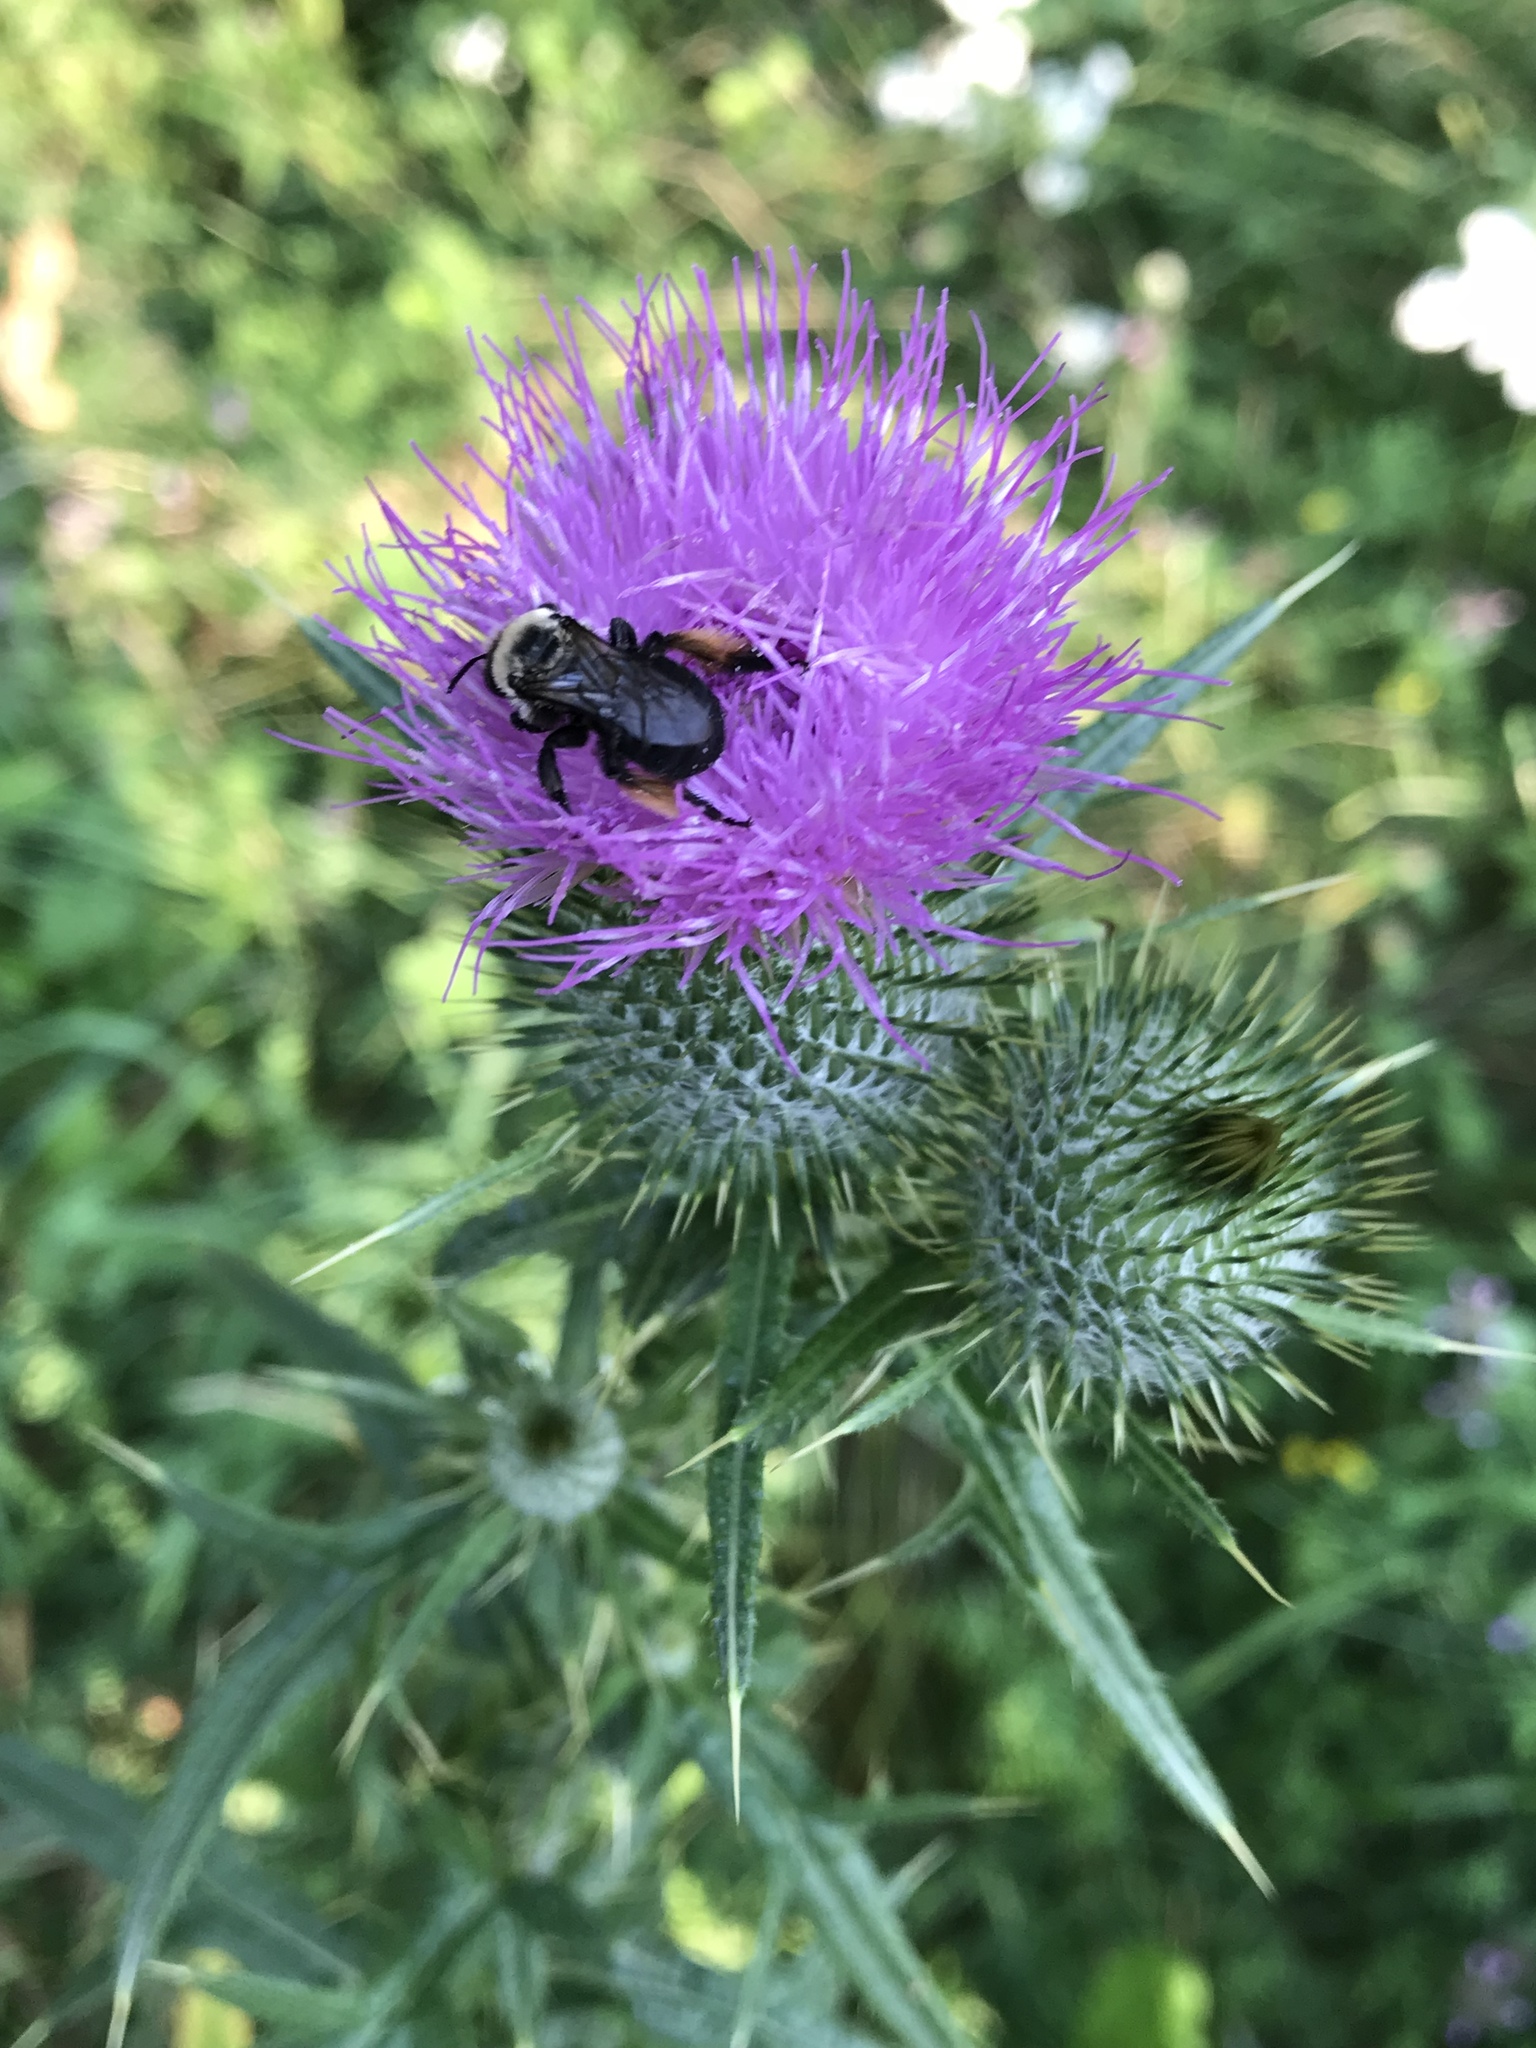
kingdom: Animalia
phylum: Arthropoda
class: Insecta
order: Hymenoptera
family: Apidae
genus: Melissodes
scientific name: Melissodes desponsus
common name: Thistle long-horned bee
